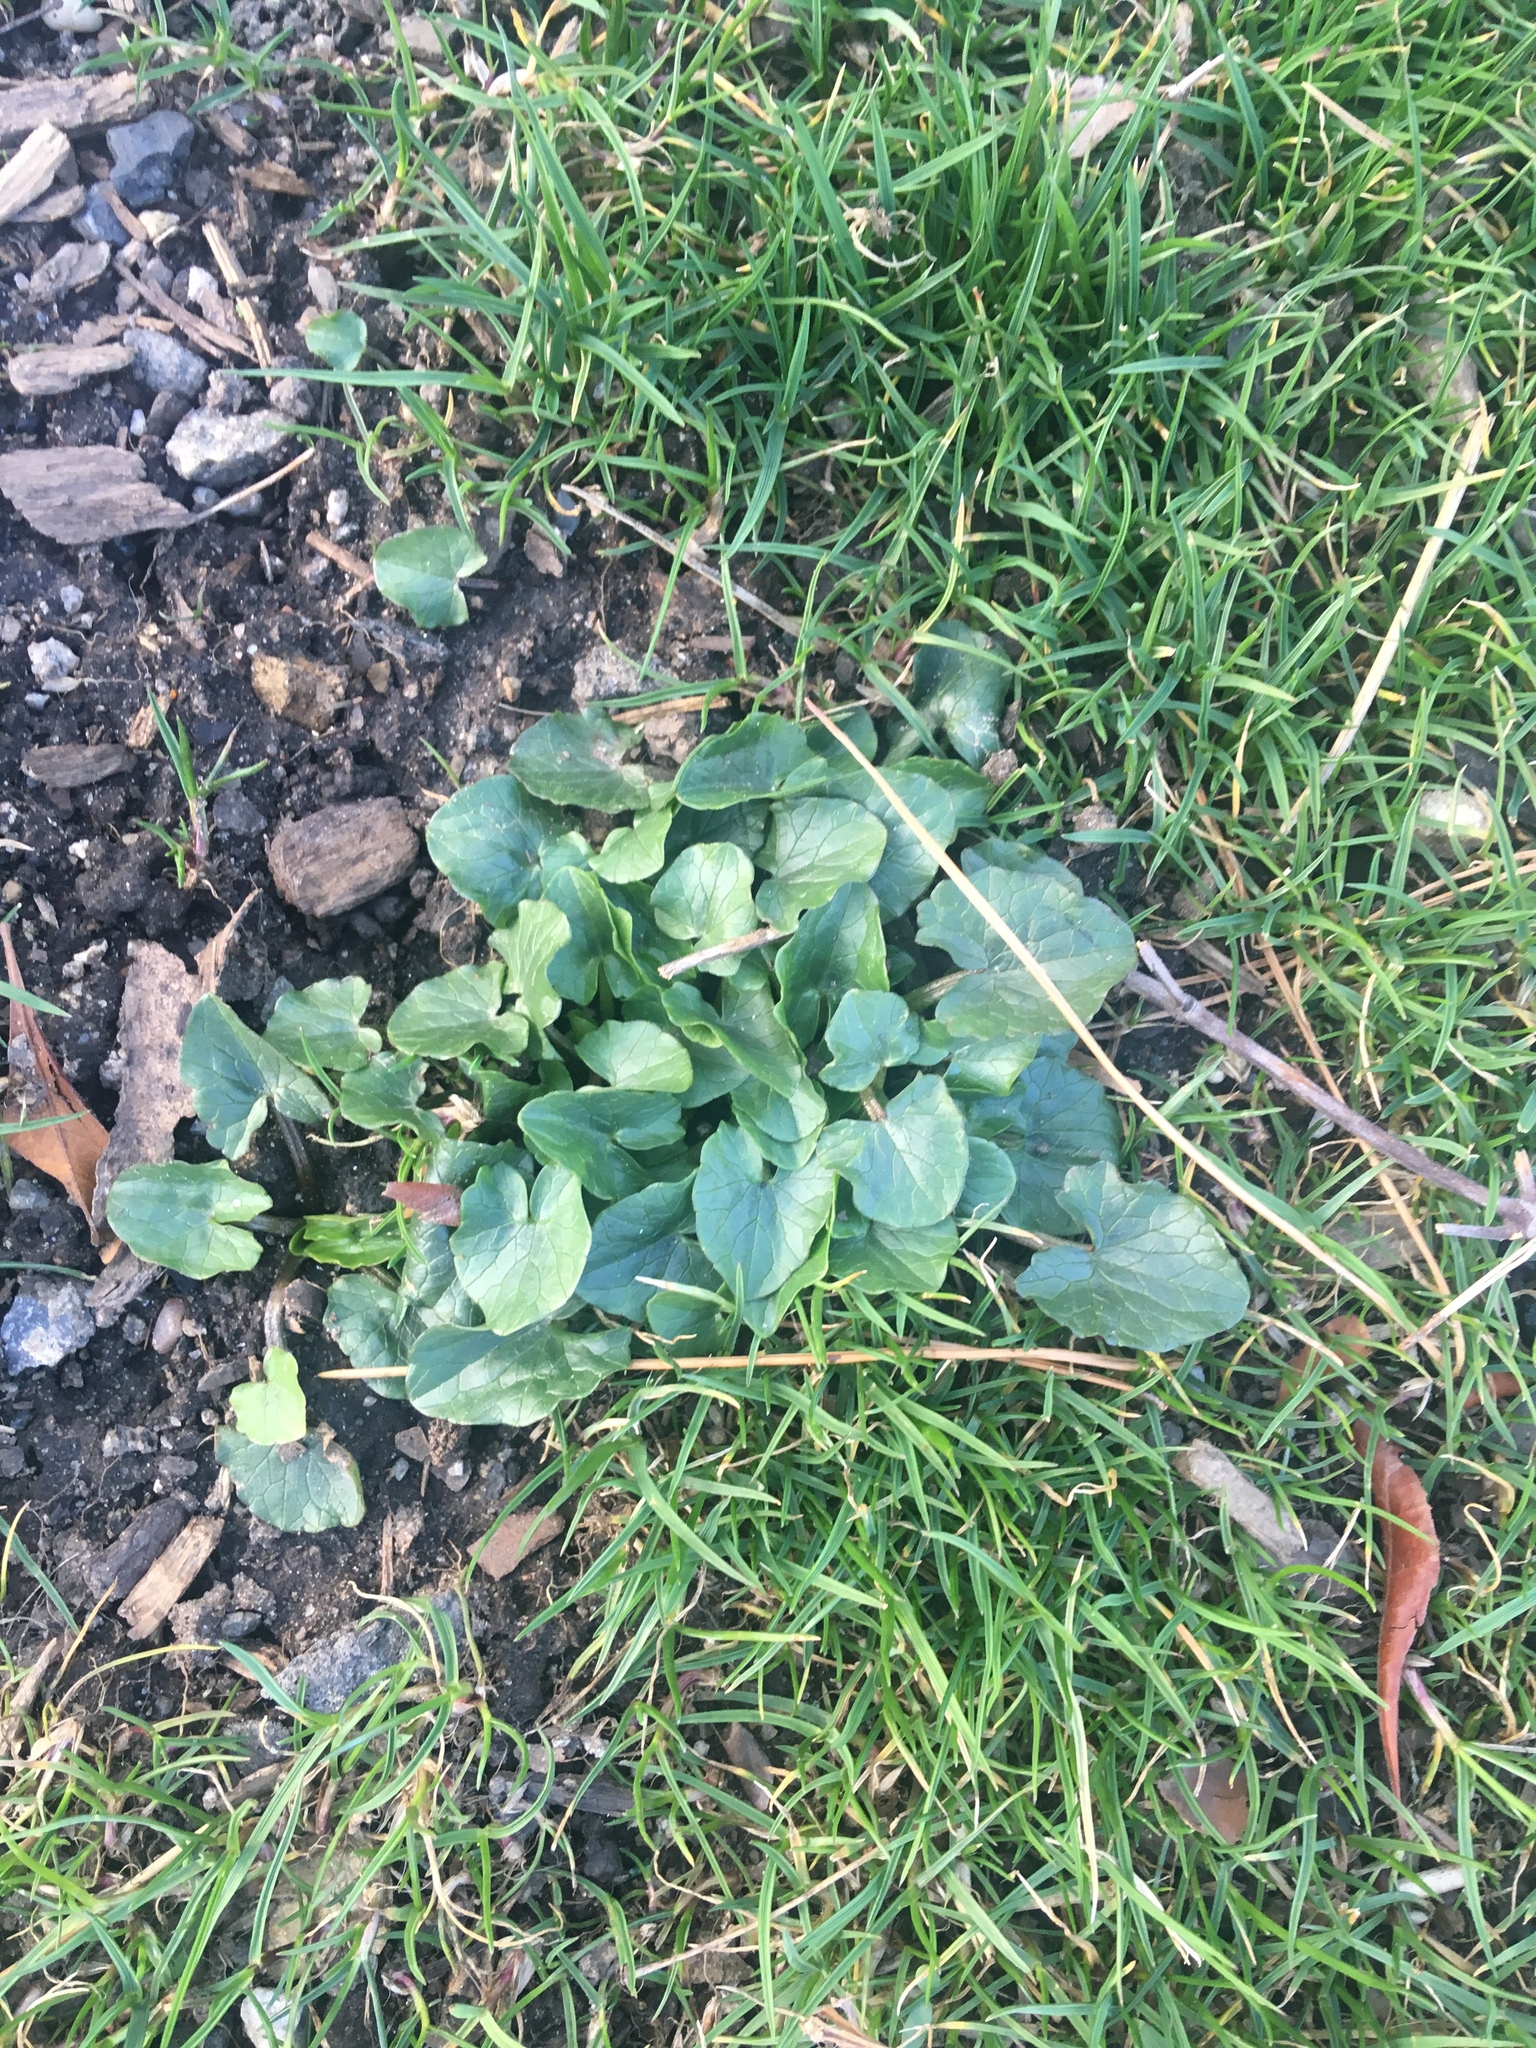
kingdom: Plantae
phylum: Tracheophyta
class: Magnoliopsida
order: Ranunculales
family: Ranunculaceae
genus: Ficaria
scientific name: Ficaria verna
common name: Lesser celandine
